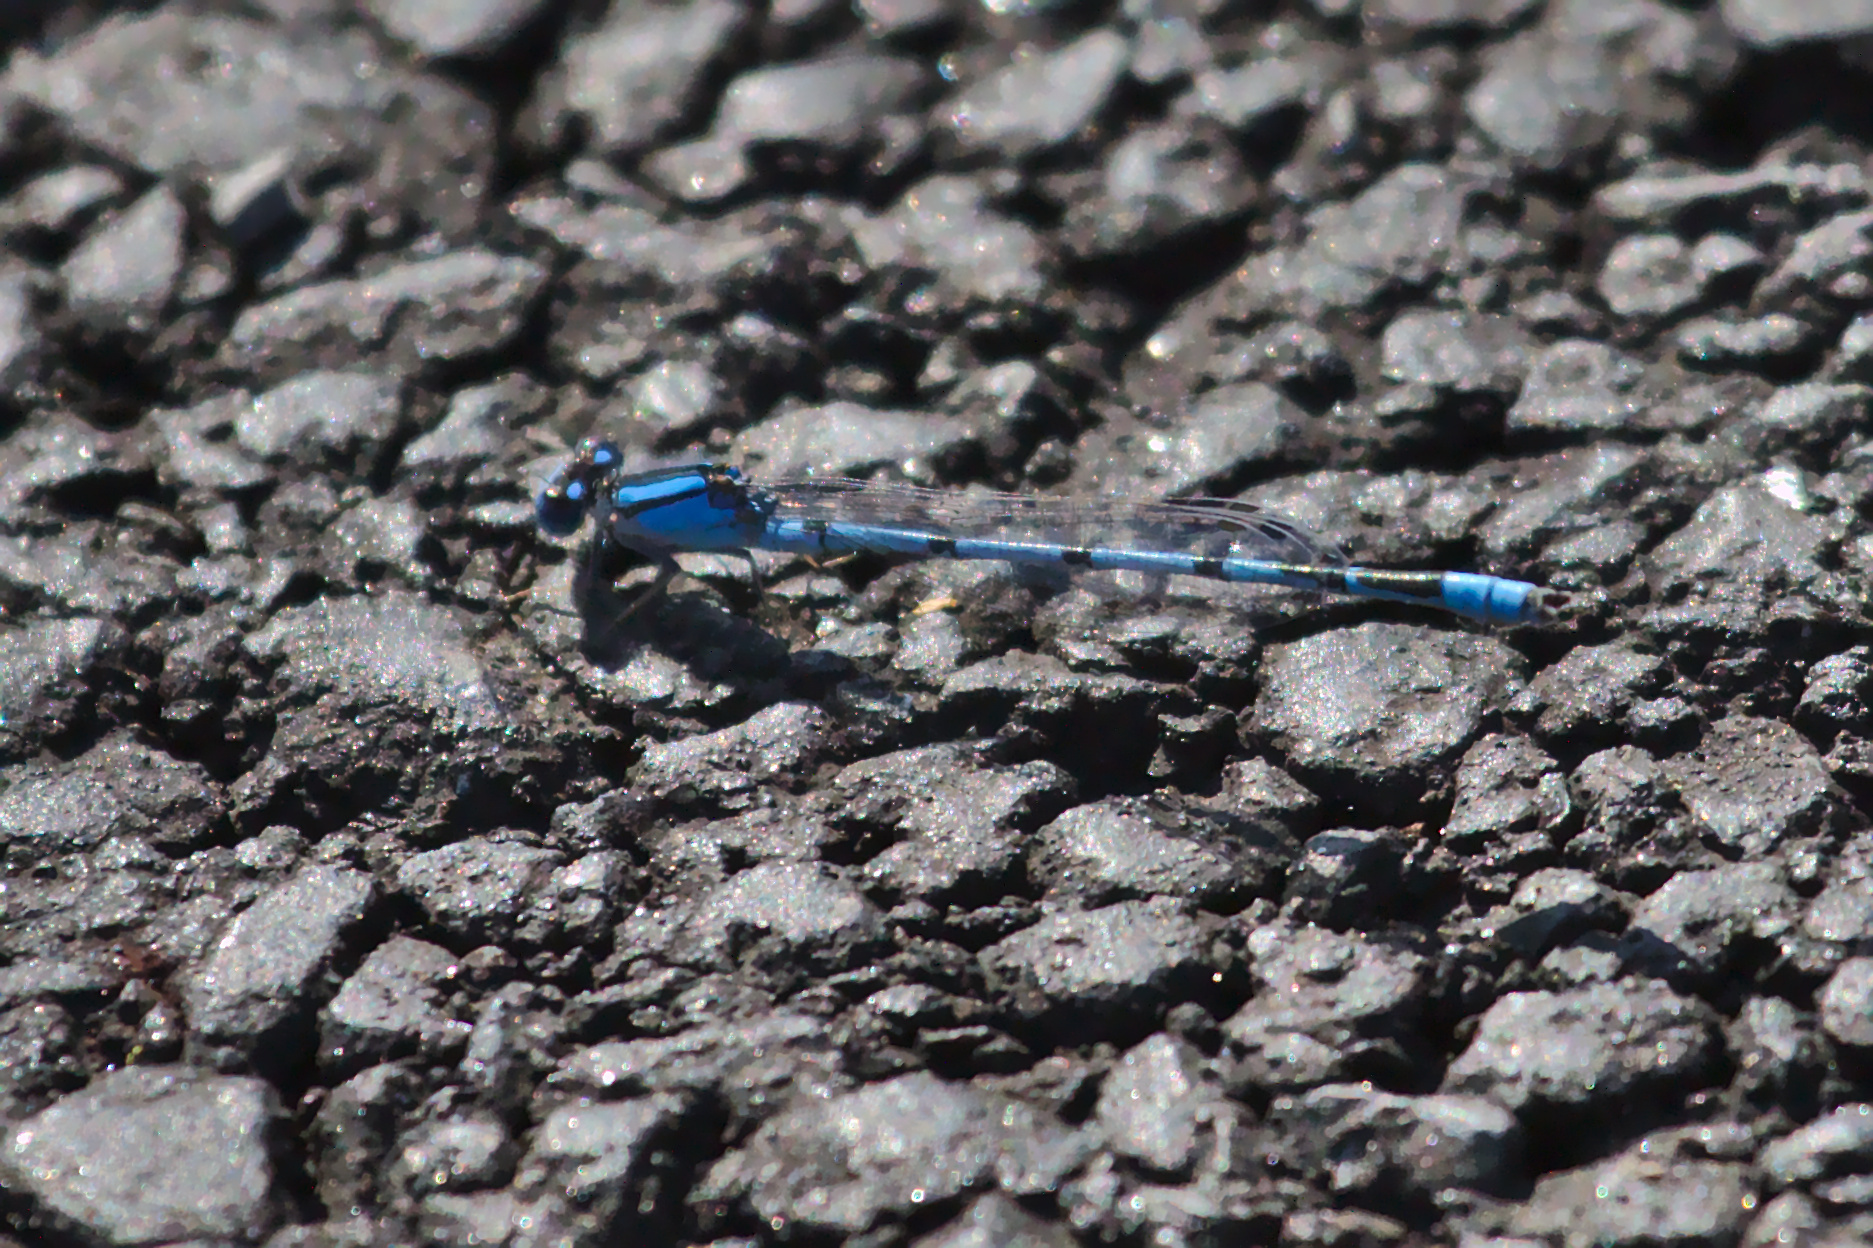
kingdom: Animalia
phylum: Arthropoda
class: Insecta
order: Odonata
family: Coenagrionidae
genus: Enallagma
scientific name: Enallagma civile
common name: Damselfly
